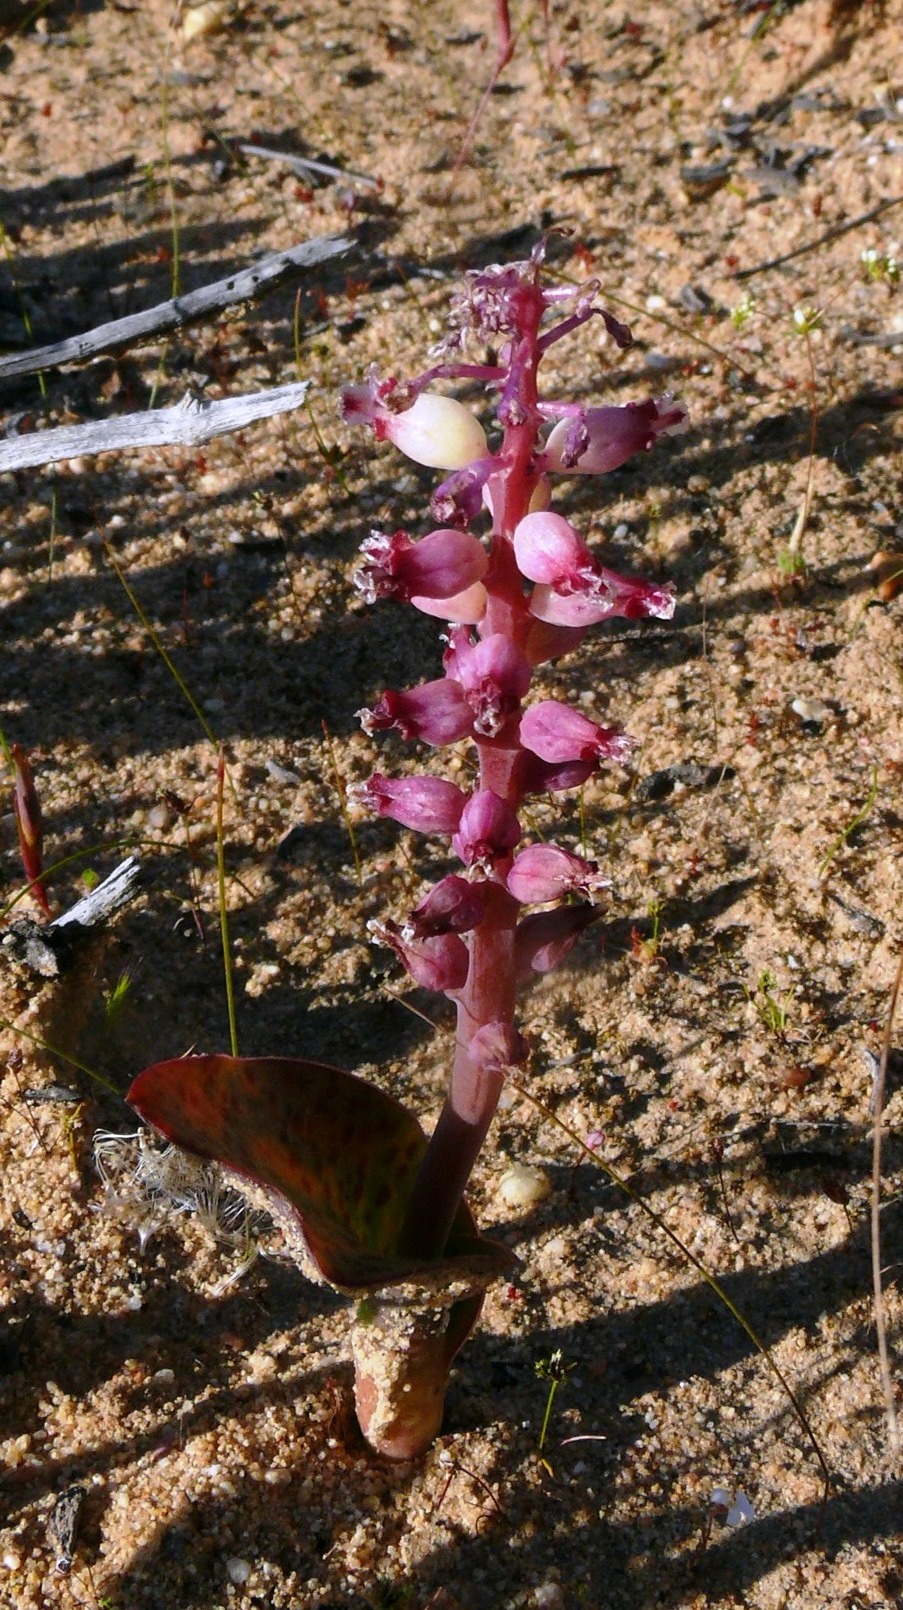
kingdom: Plantae
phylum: Tracheophyta
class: Liliopsida
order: Asparagales
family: Asparagaceae
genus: Lachenalia
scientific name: Lachenalia membranacea
